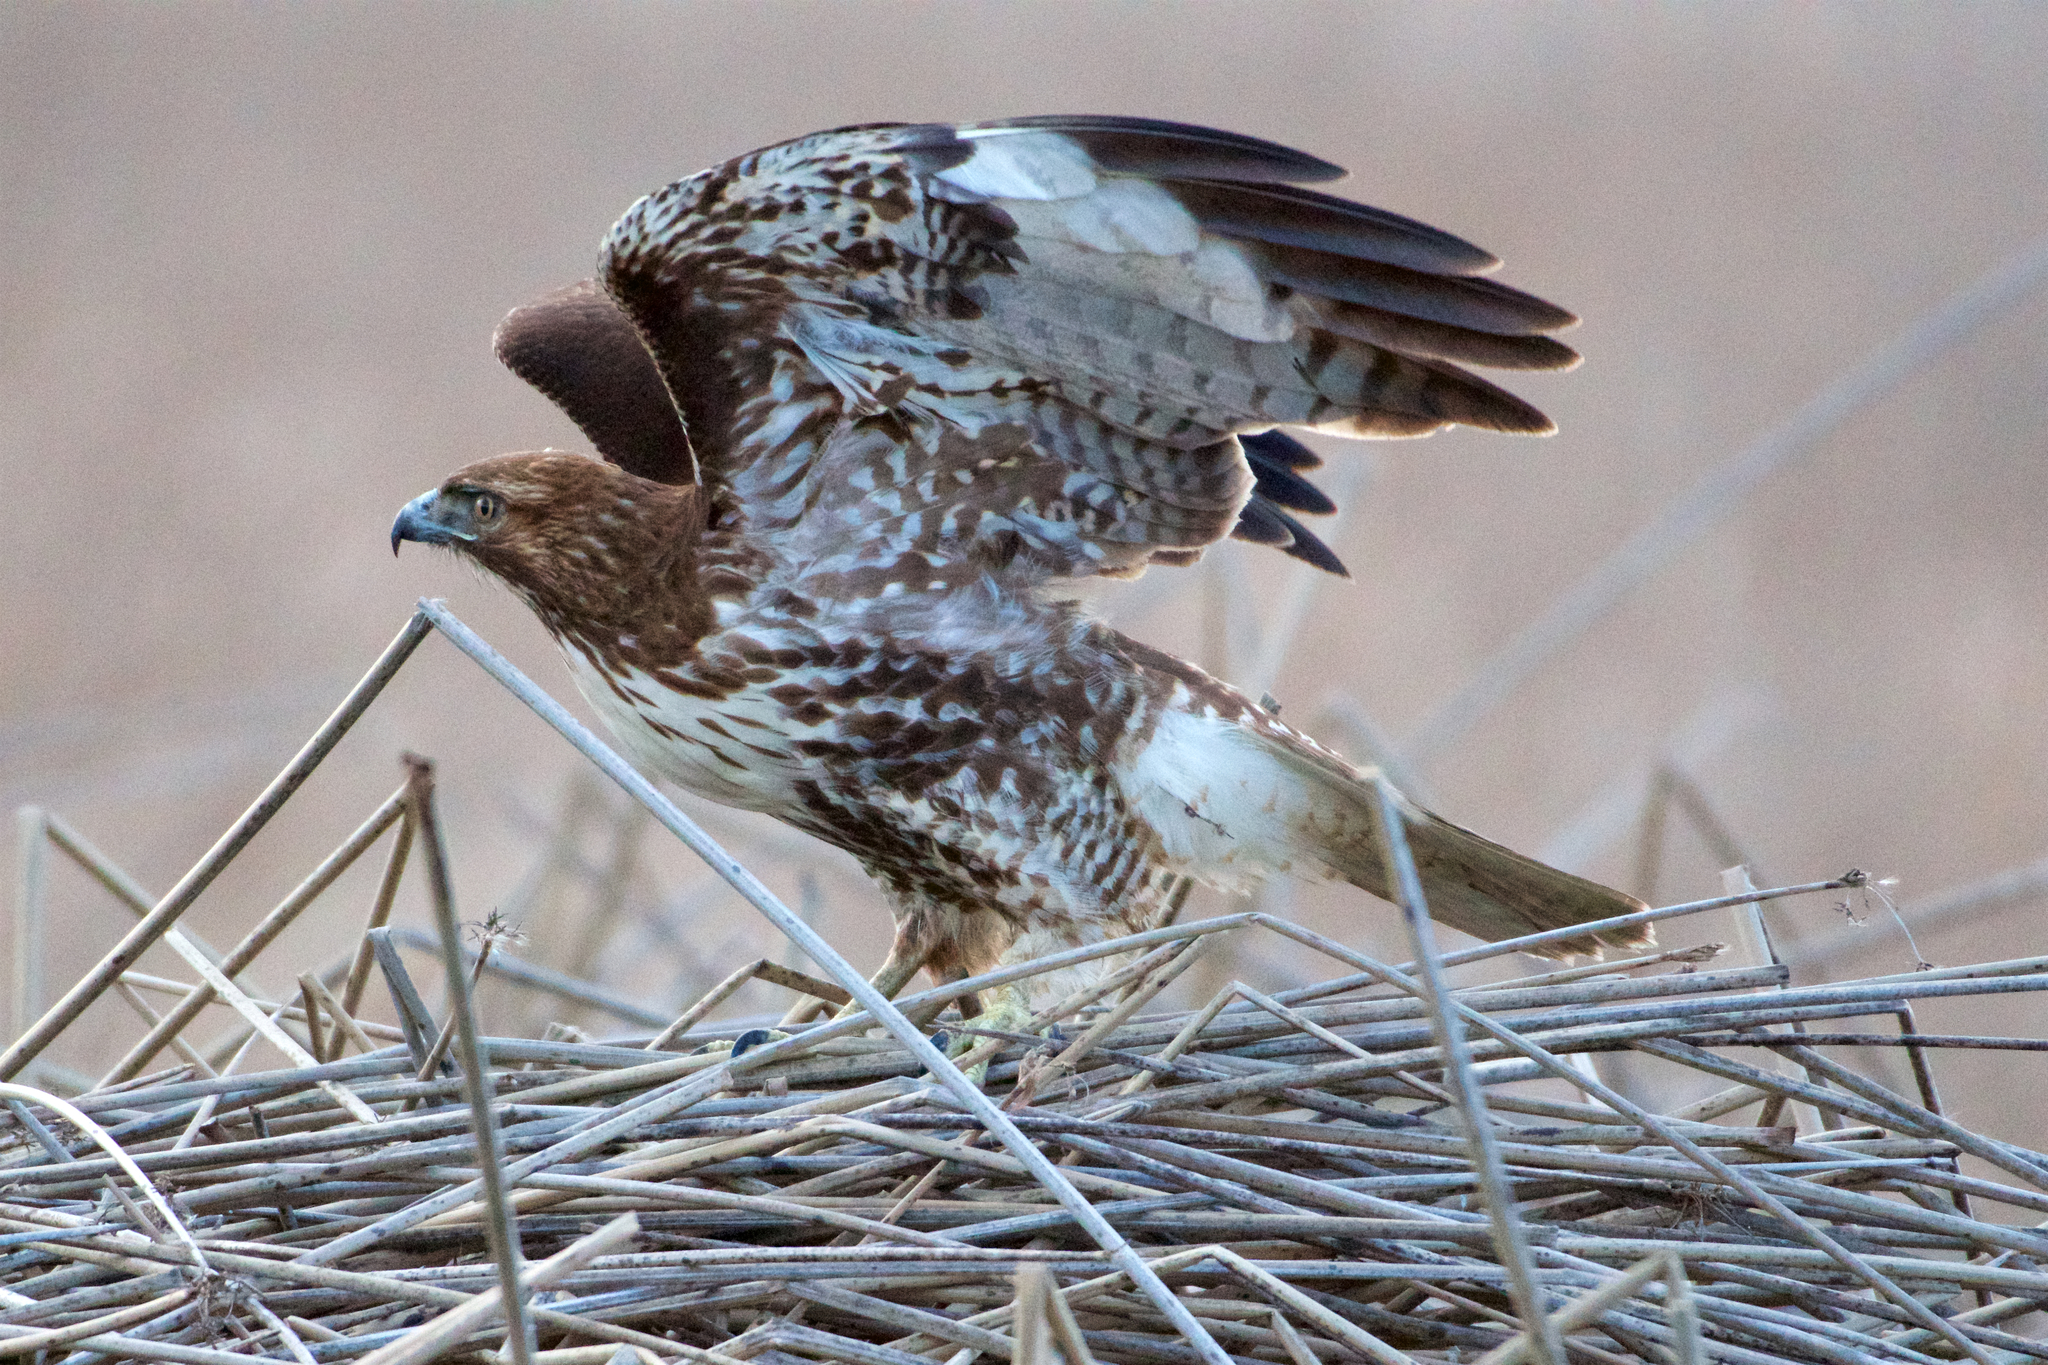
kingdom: Animalia
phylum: Chordata
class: Aves
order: Accipitriformes
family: Accipitridae
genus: Buteo
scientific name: Buteo jamaicensis
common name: Red-tailed hawk
